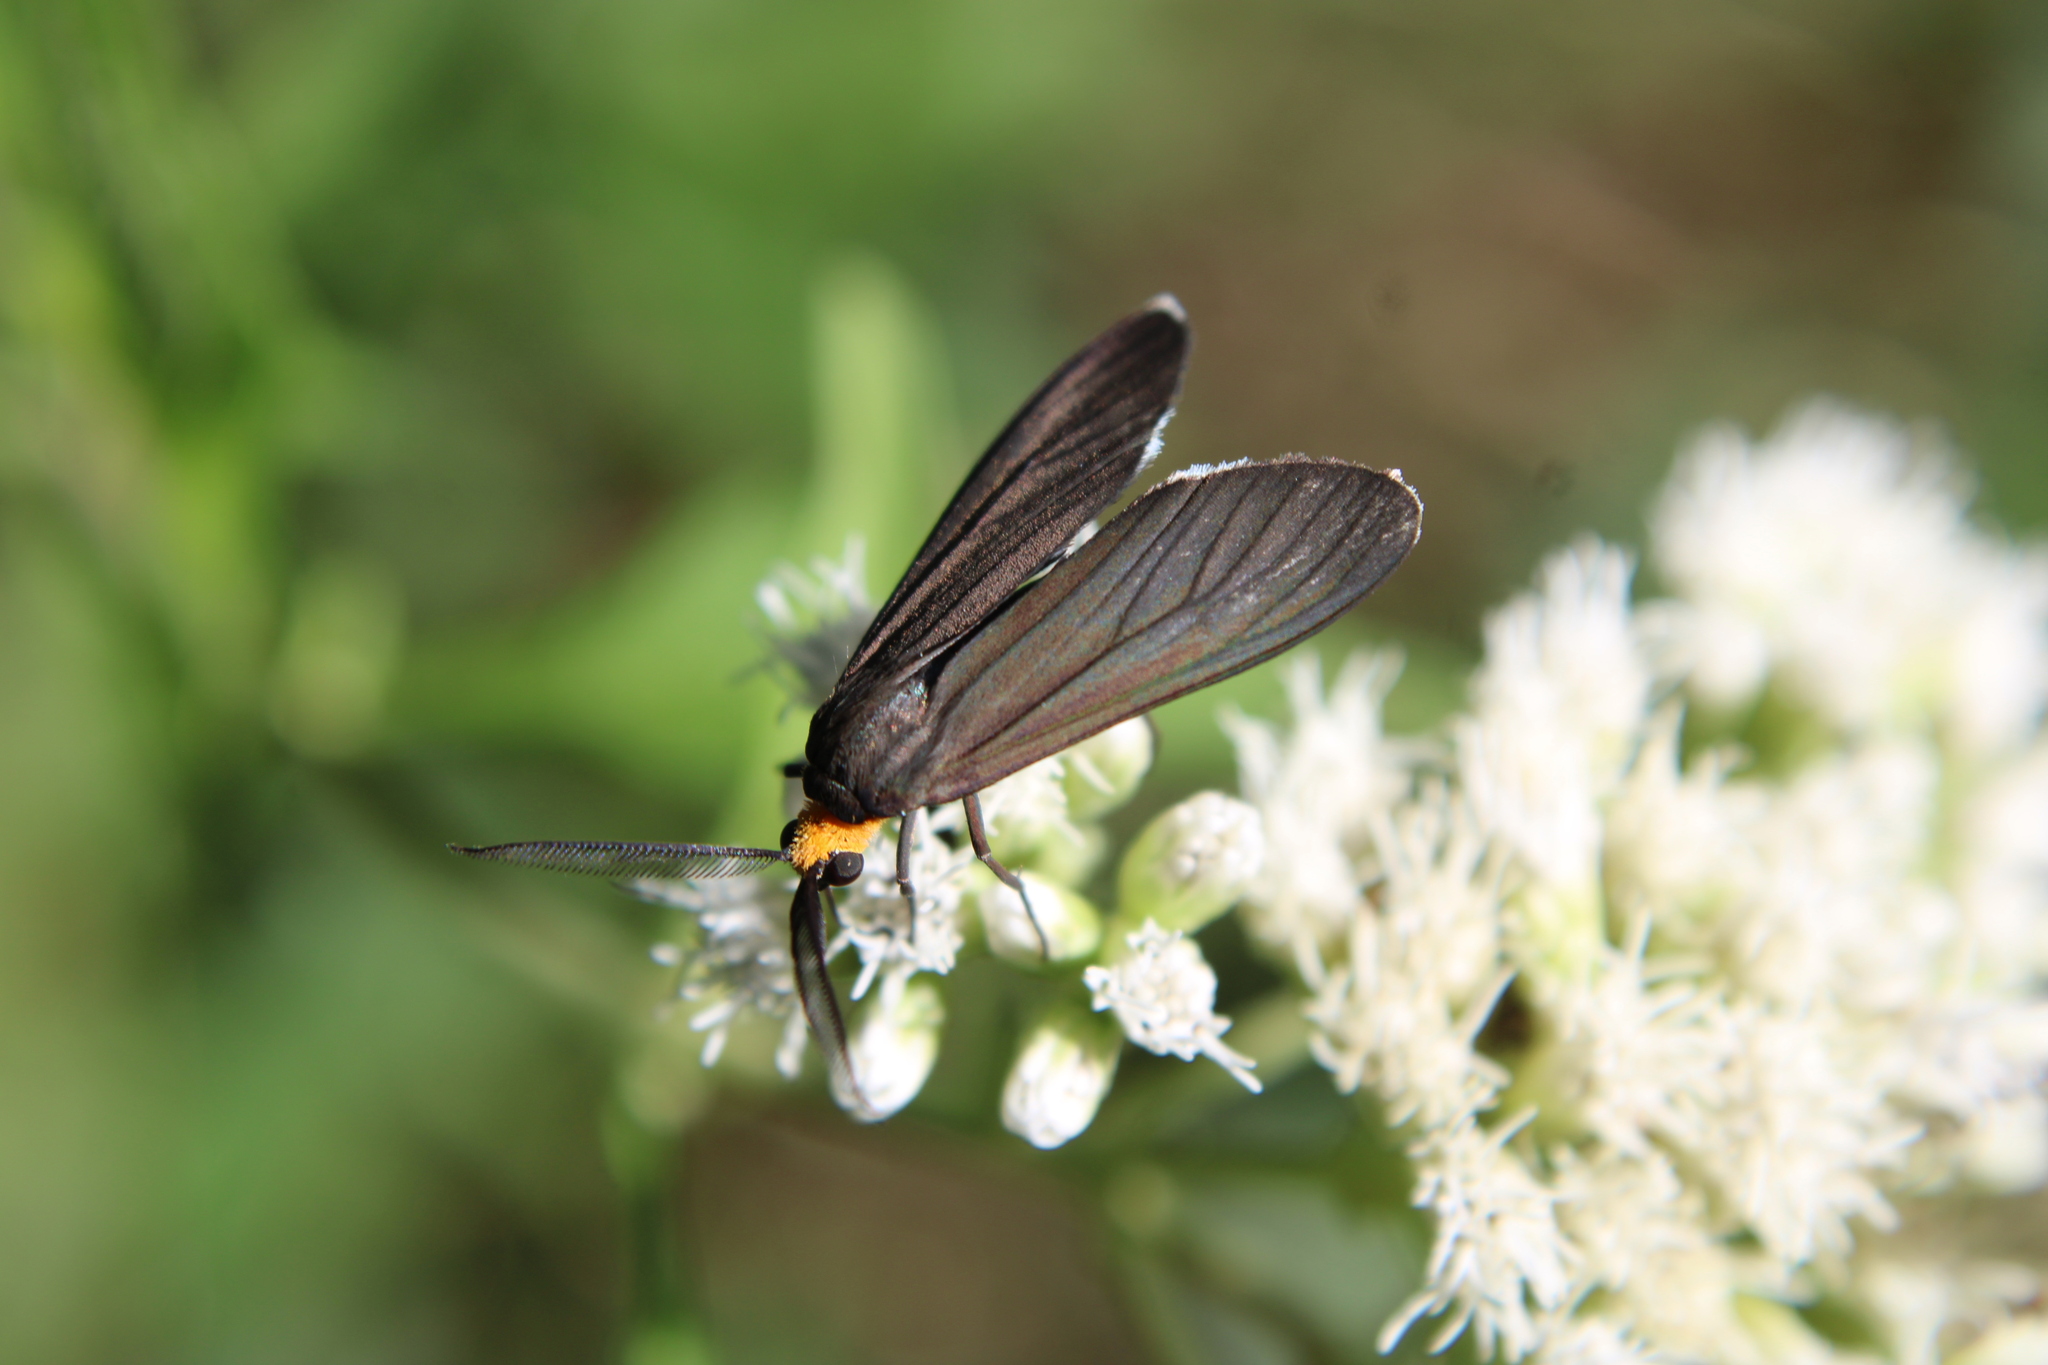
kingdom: Animalia
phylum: Arthropoda
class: Insecta
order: Lepidoptera
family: Erebidae
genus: Ctenucha
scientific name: Ctenucha rubriceps
